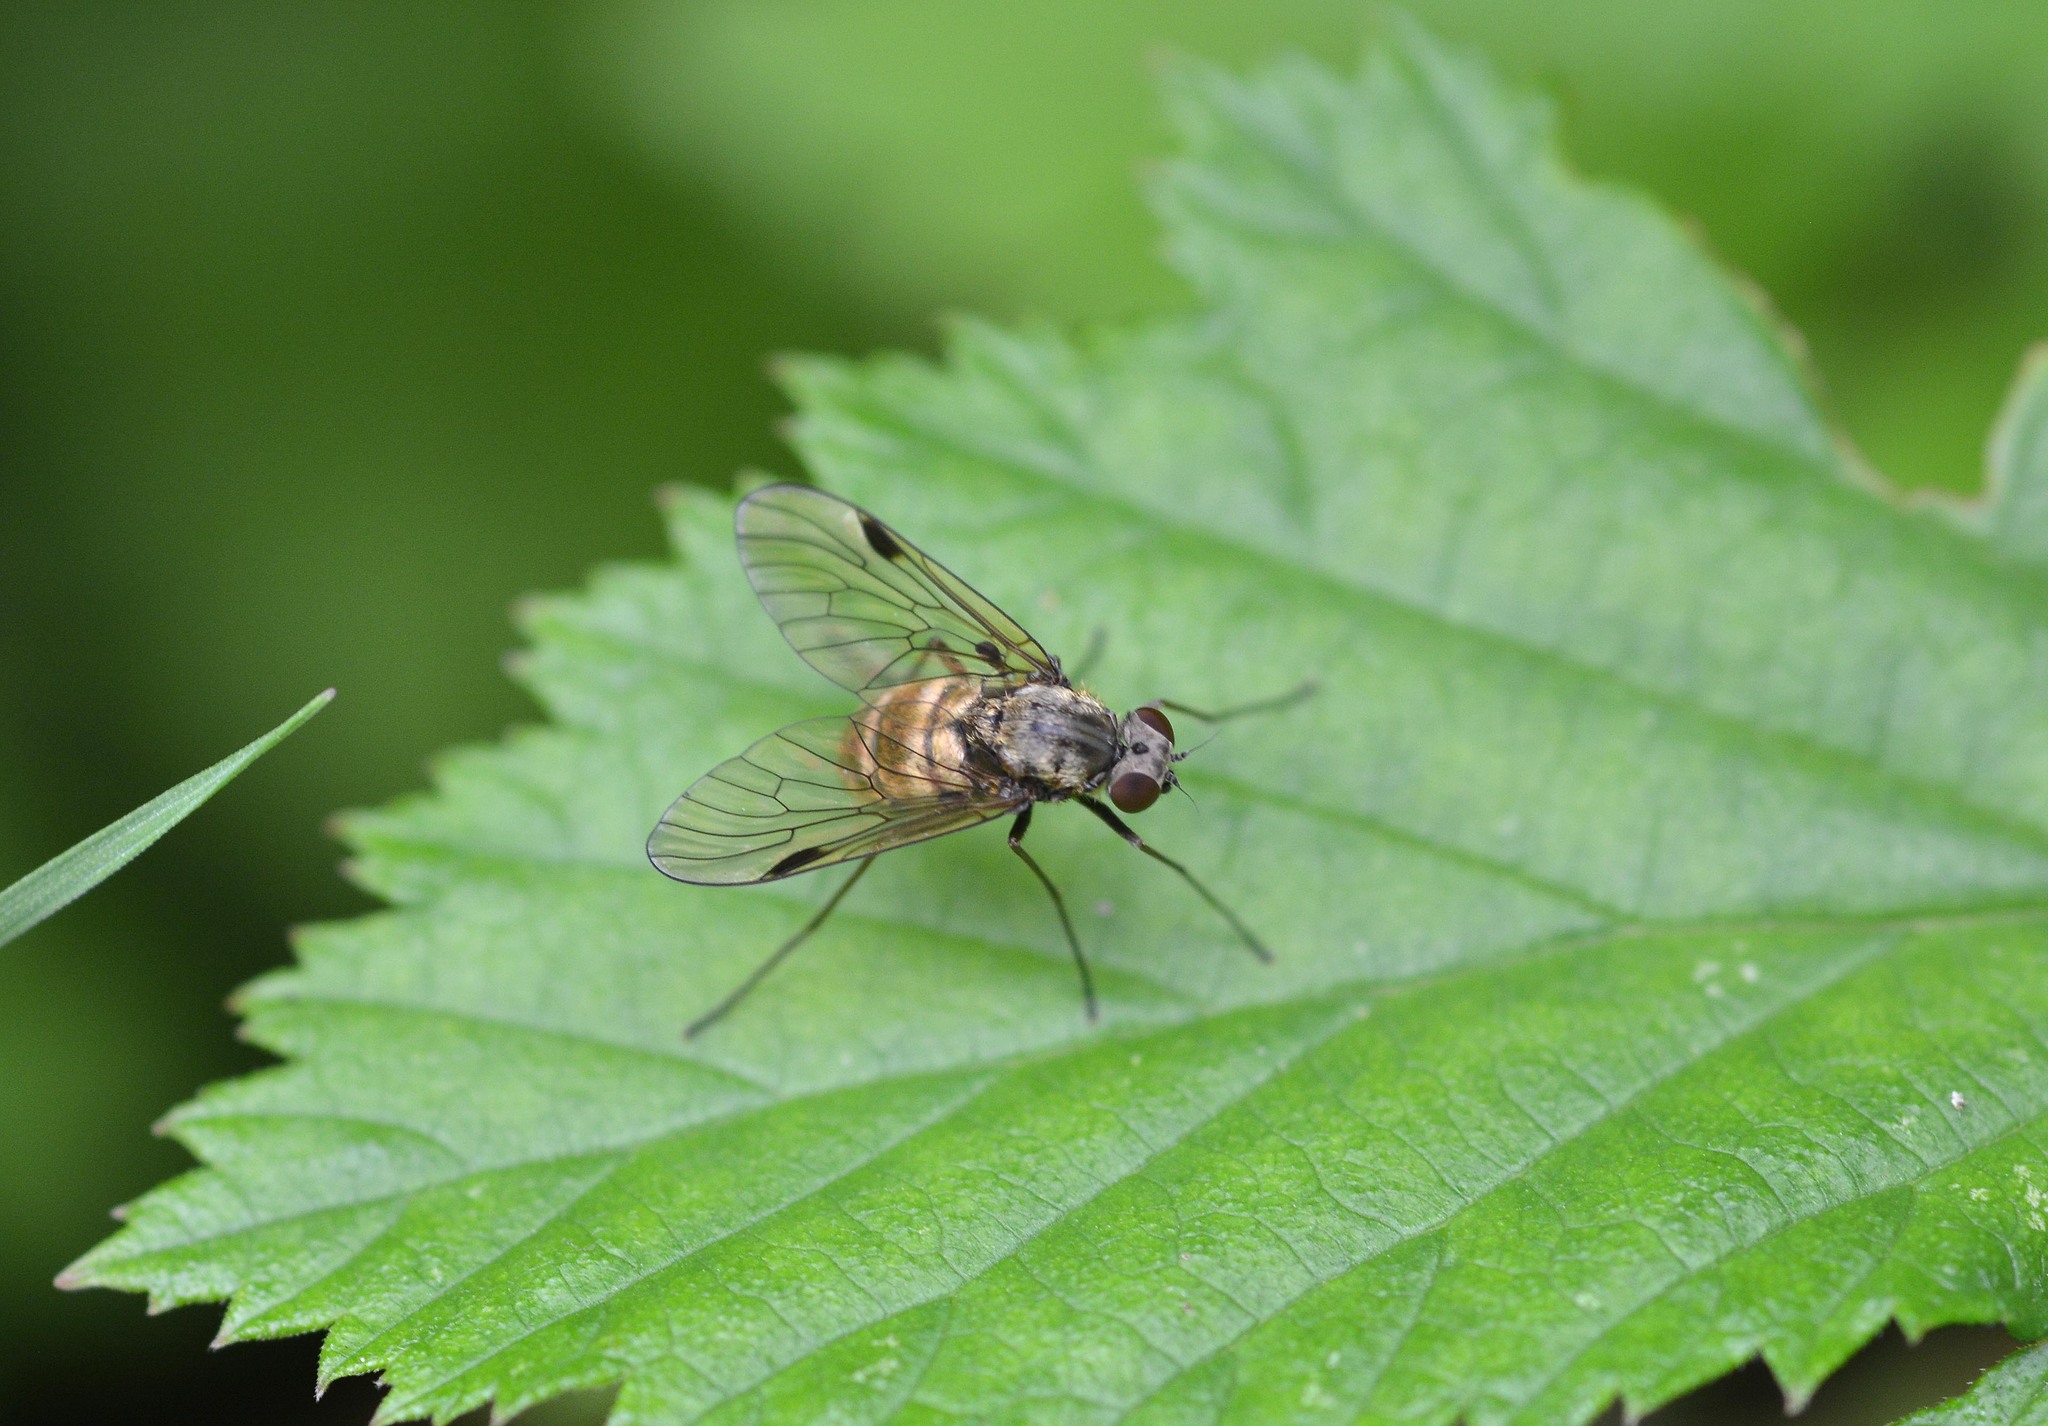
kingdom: Animalia
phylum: Arthropoda
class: Insecta
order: Diptera
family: Rhagionidae
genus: Chrysopilus
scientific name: Chrysopilus cristatus
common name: Black snipefly
